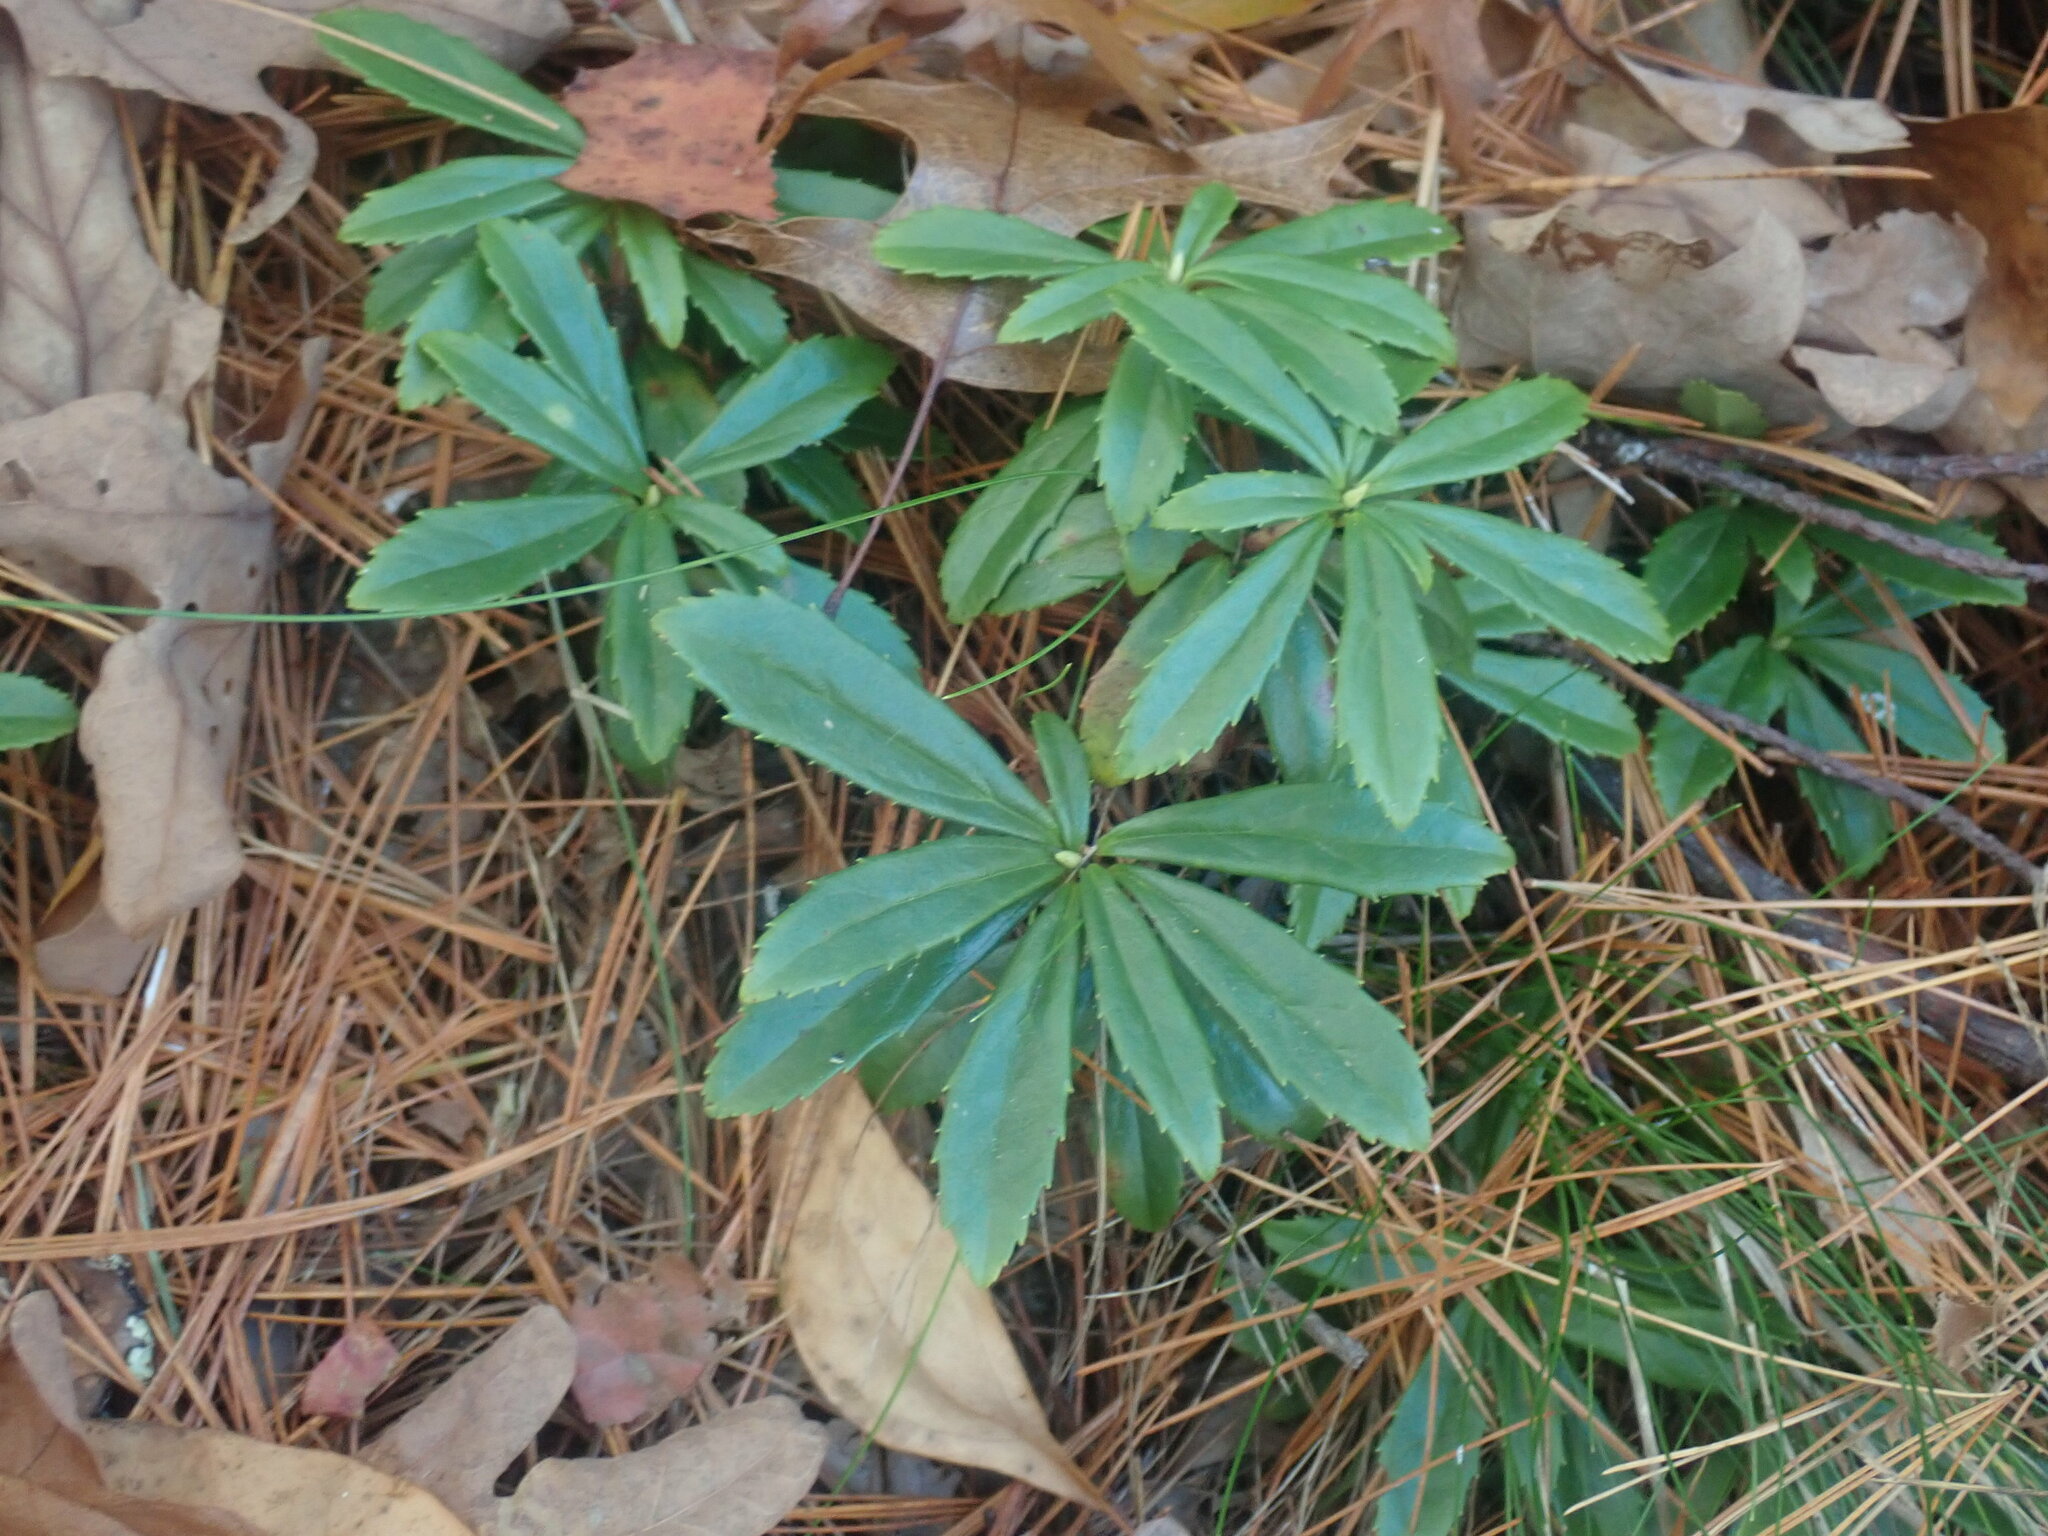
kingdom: Plantae
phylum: Tracheophyta
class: Magnoliopsida
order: Ericales
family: Ericaceae
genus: Chimaphila
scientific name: Chimaphila umbellata
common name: Pipsissewa
